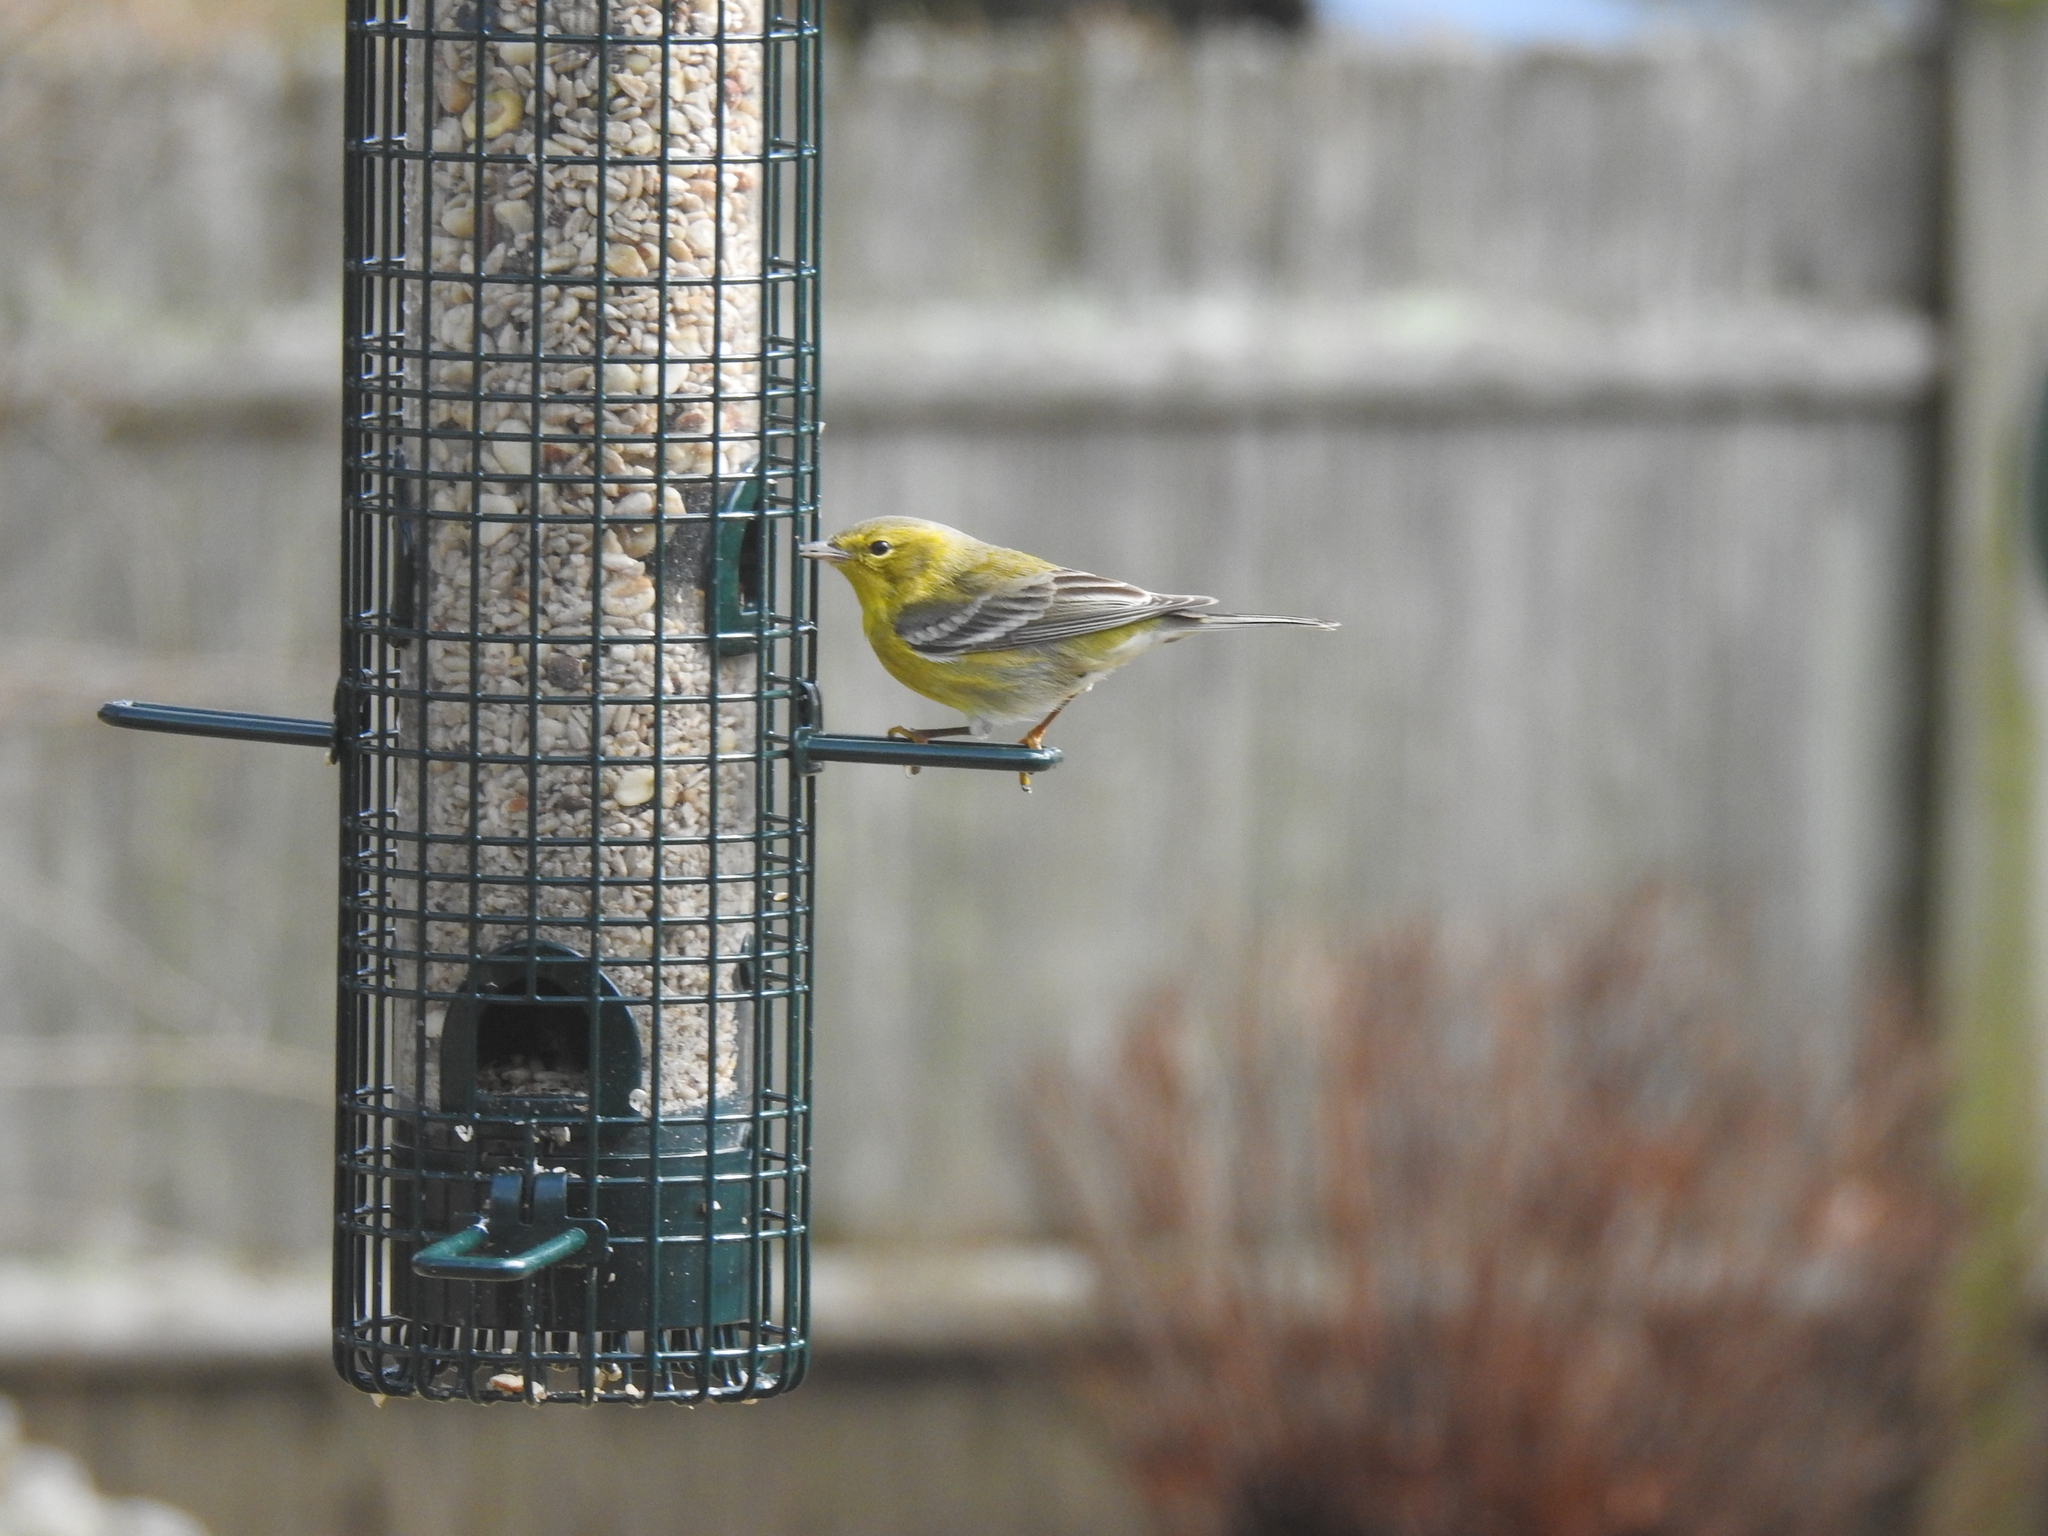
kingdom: Animalia
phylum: Chordata
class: Aves
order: Passeriformes
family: Parulidae
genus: Setophaga
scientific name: Setophaga pinus
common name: Pine warbler
